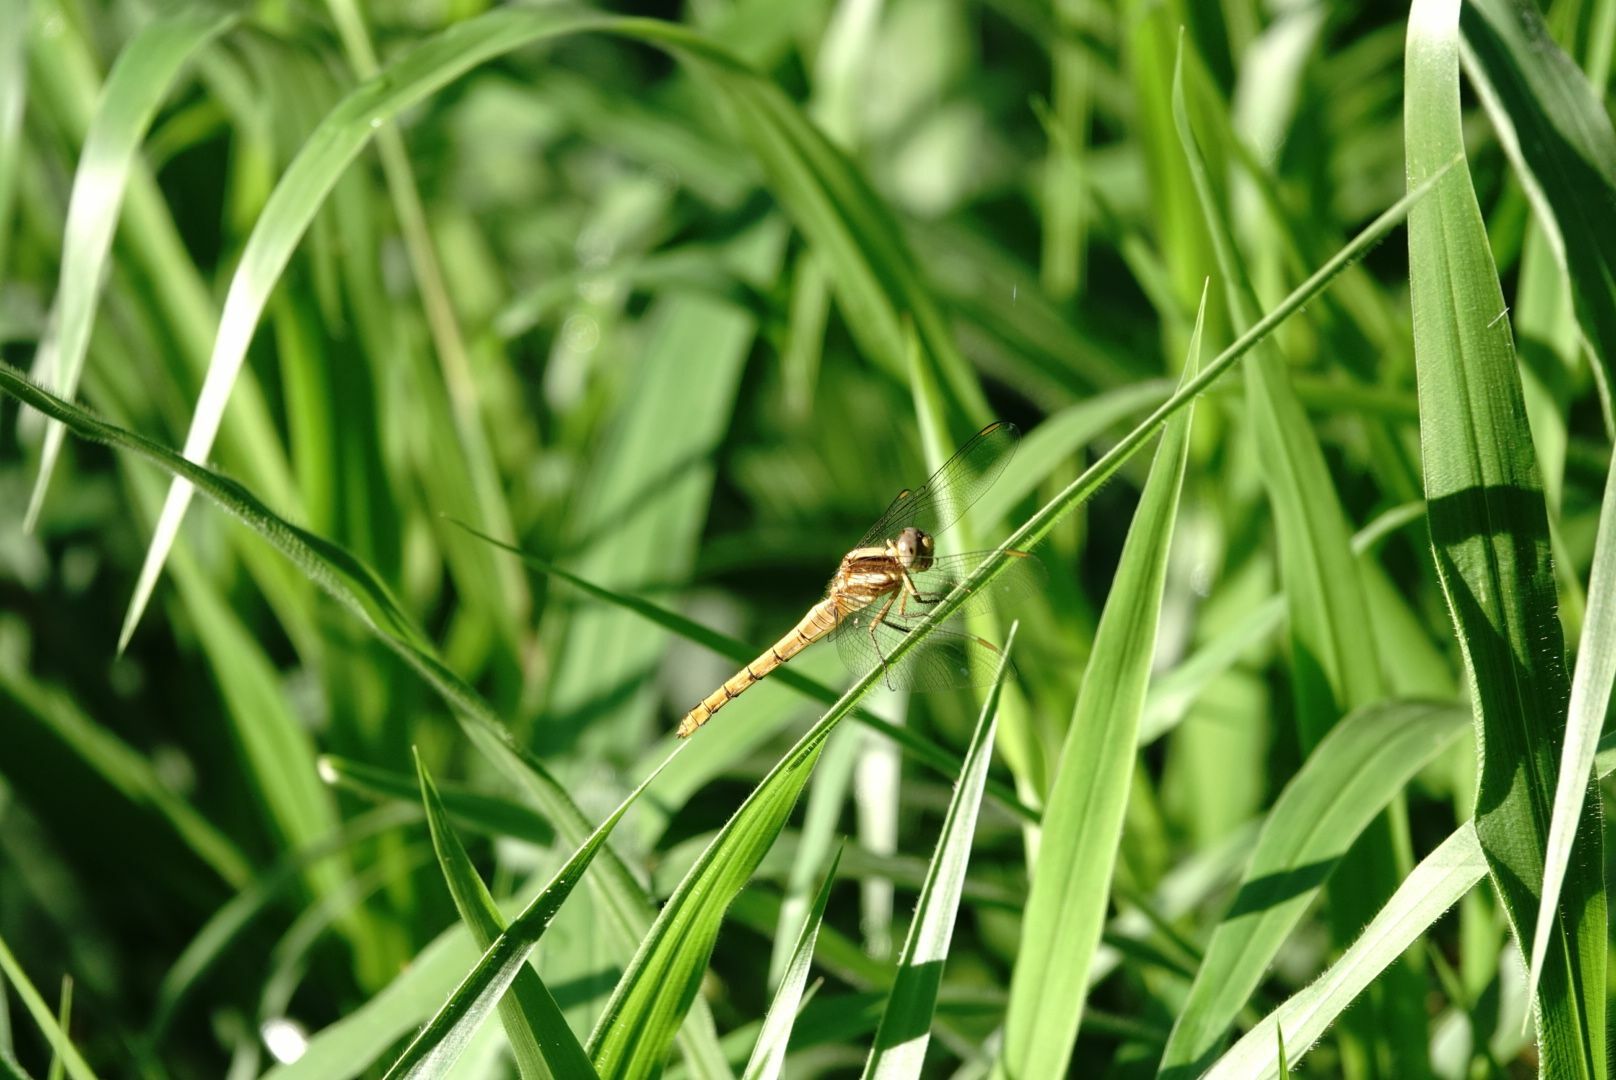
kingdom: Animalia
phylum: Arthropoda
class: Insecta
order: Odonata
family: Libellulidae
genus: Orthetrum
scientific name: Orthetrum glaucum
